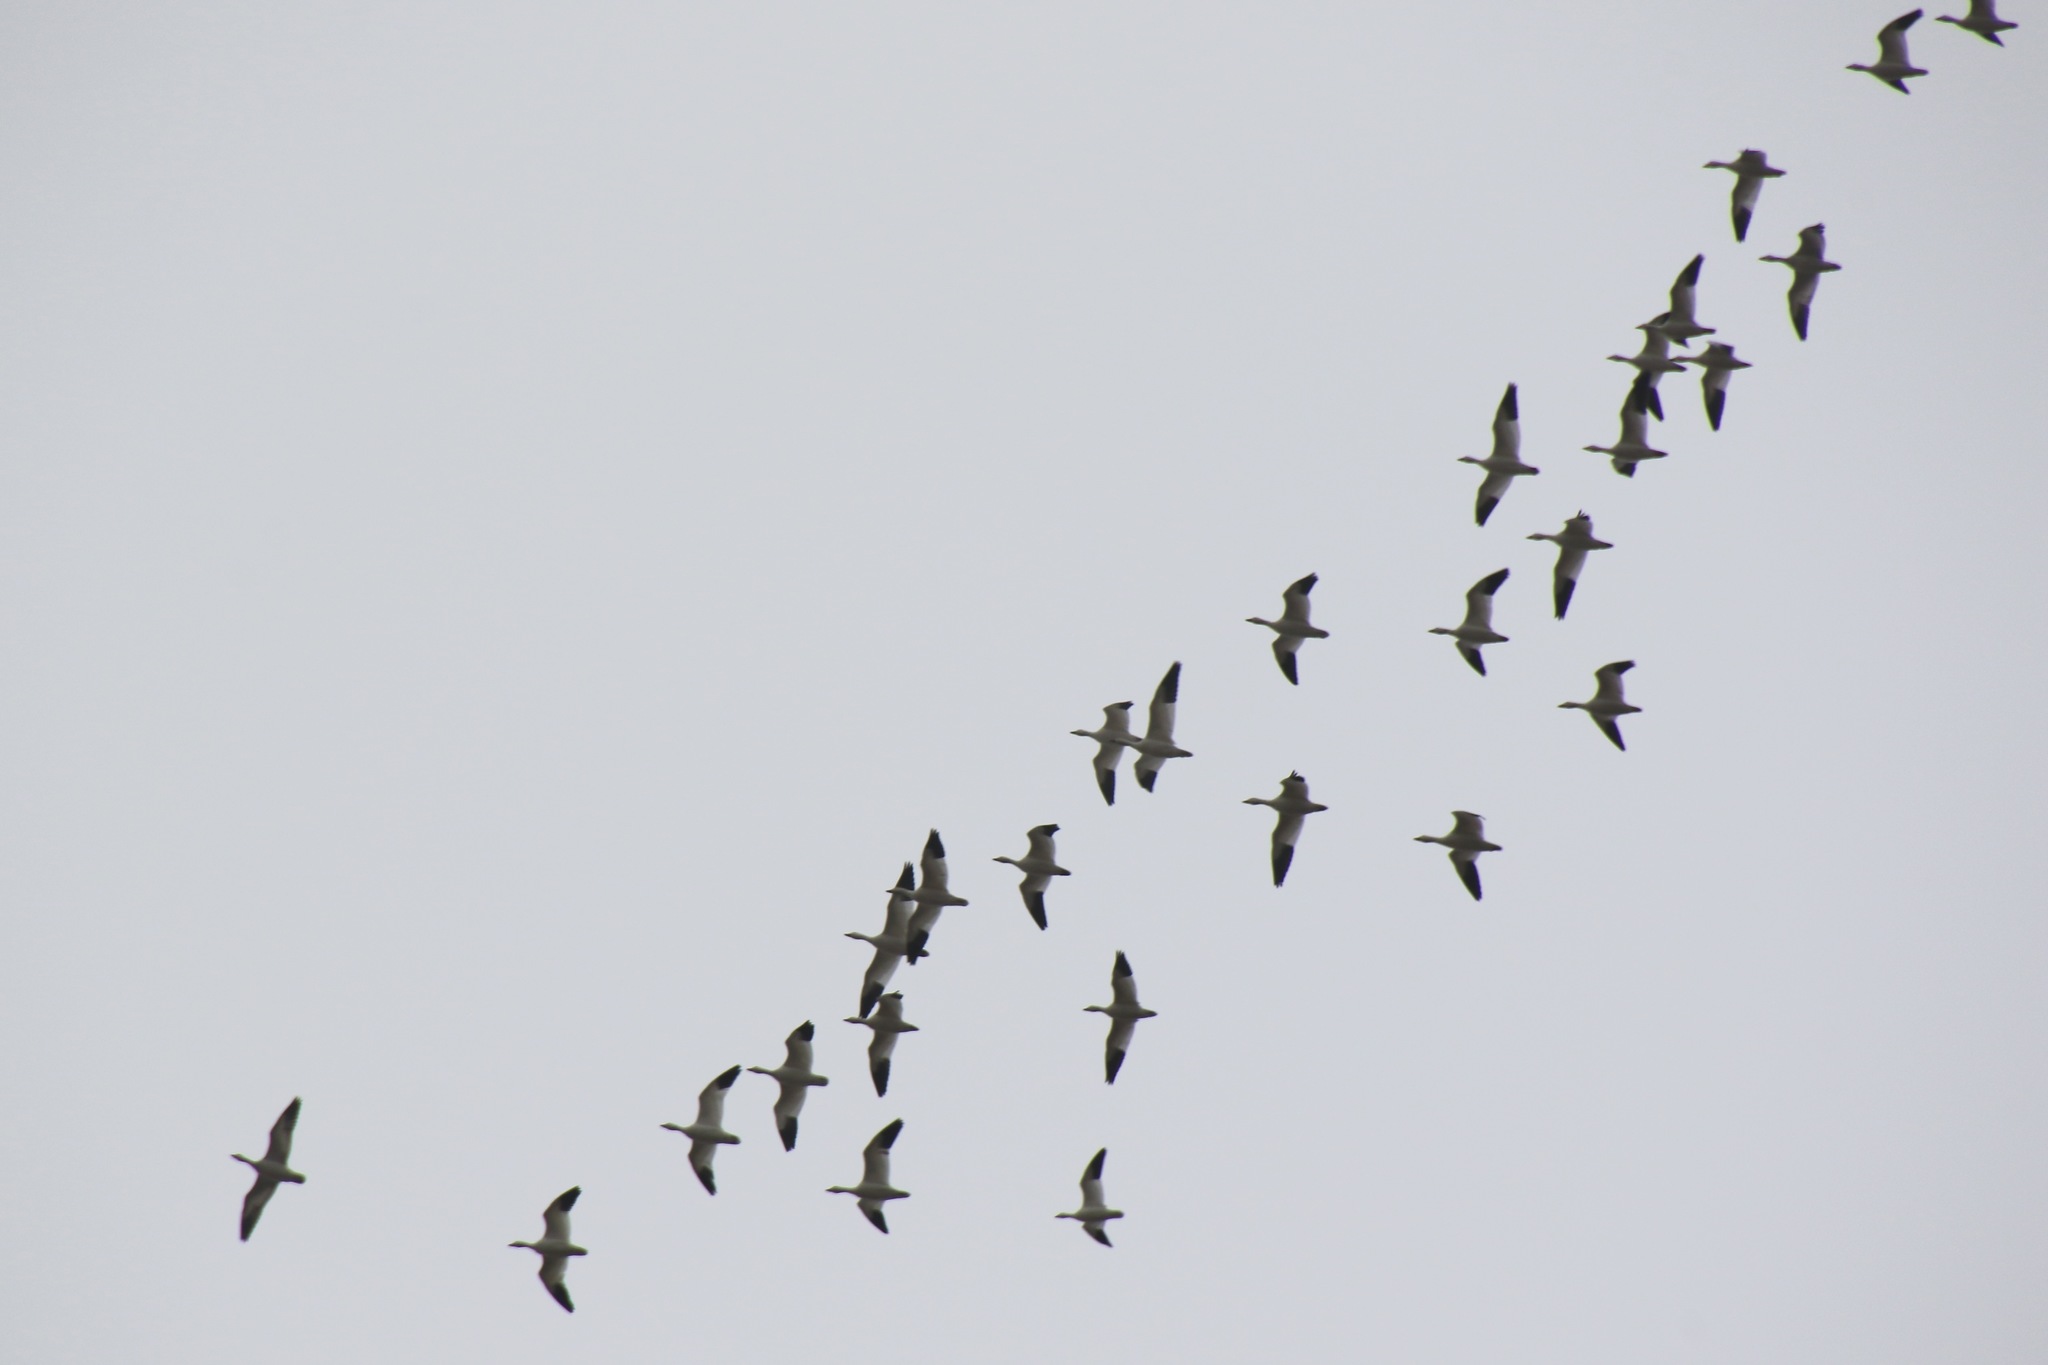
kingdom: Animalia
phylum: Chordata
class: Aves
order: Anseriformes
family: Anatidae
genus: Anser
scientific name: Anser caerulescens
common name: Snow goose
